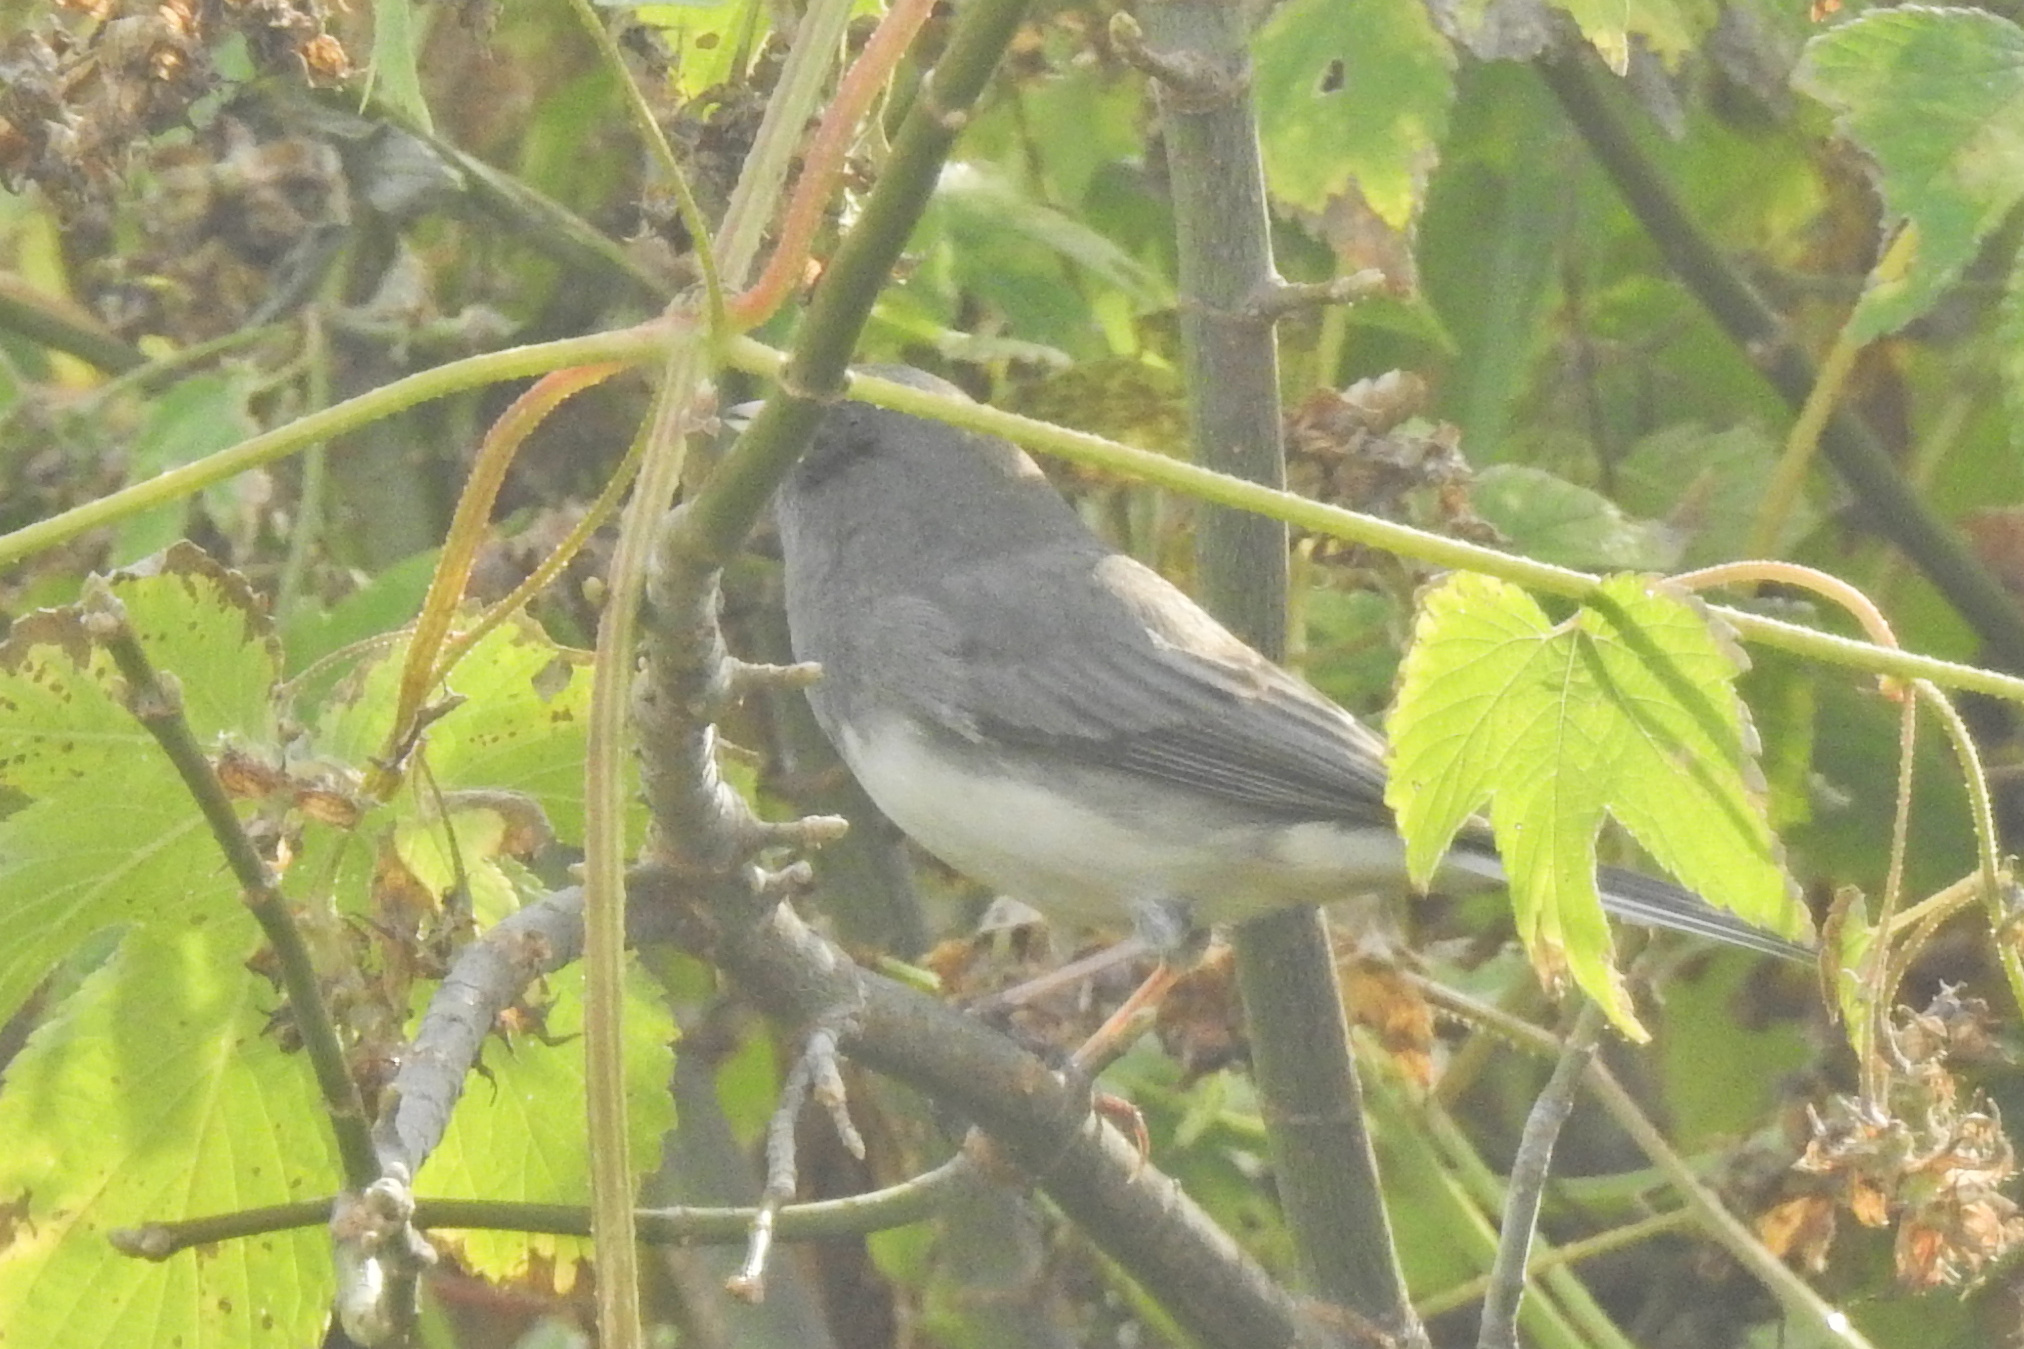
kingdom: Animalia
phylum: Chordata
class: Aves
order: Passeriformes
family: Passerellidae
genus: Junco
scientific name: Junco hyemalis
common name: Dark-eyed junco
